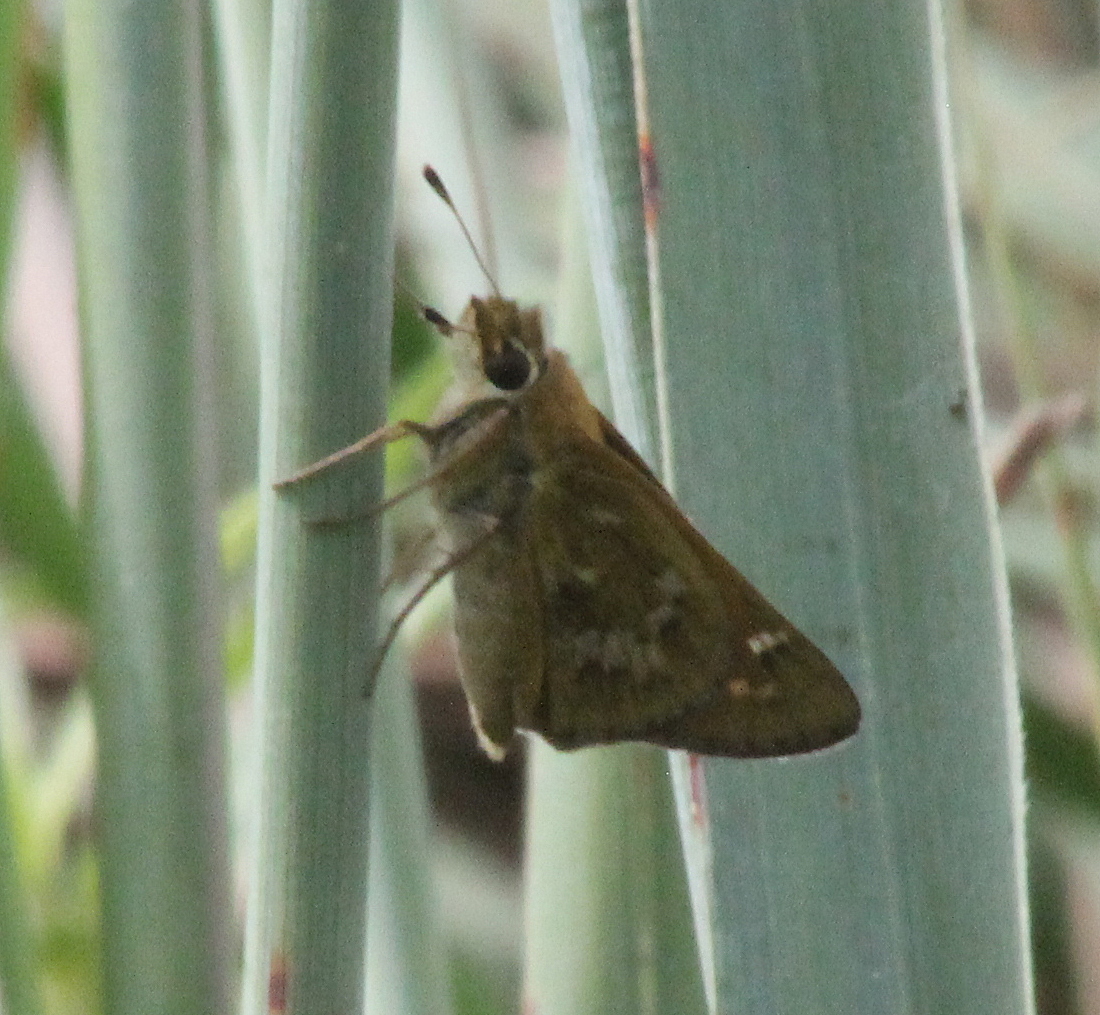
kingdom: Animalia
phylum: Arthropoda
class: Insecta
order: Lepidoptera
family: Hesperiidae
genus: Atalopedes
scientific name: Atalopedes
